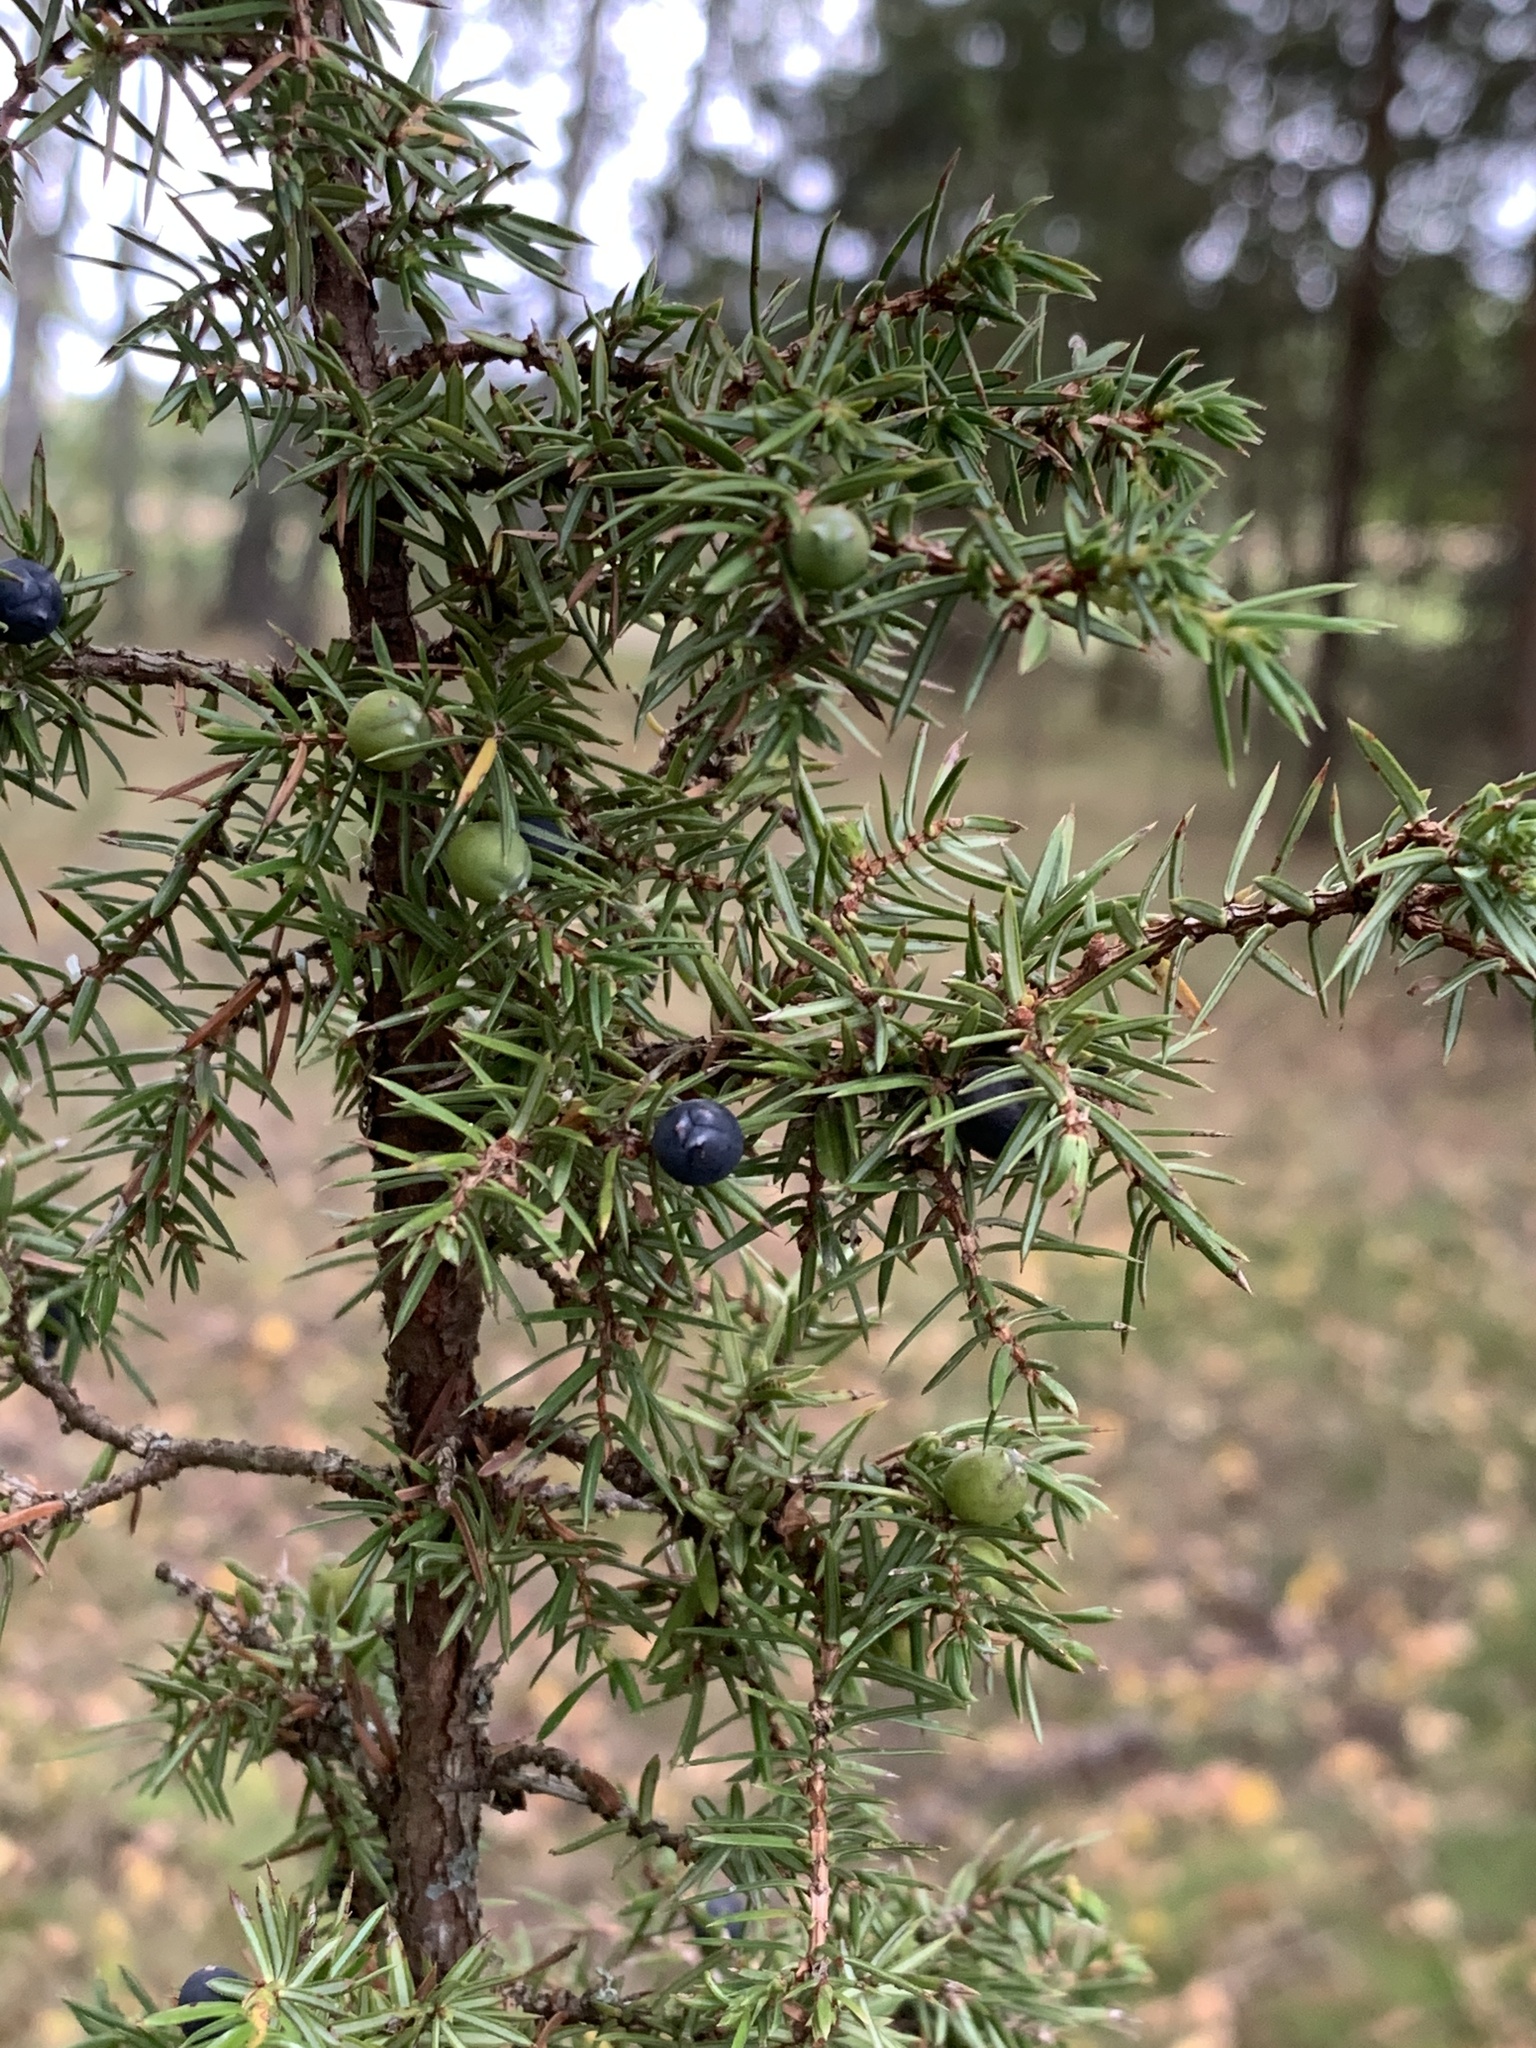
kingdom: Plantae
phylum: Tracheophyta
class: Pinopsida
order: Pinales
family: Cupressaceae
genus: Juniperus
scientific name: Juniperus communis
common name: Common juniper
